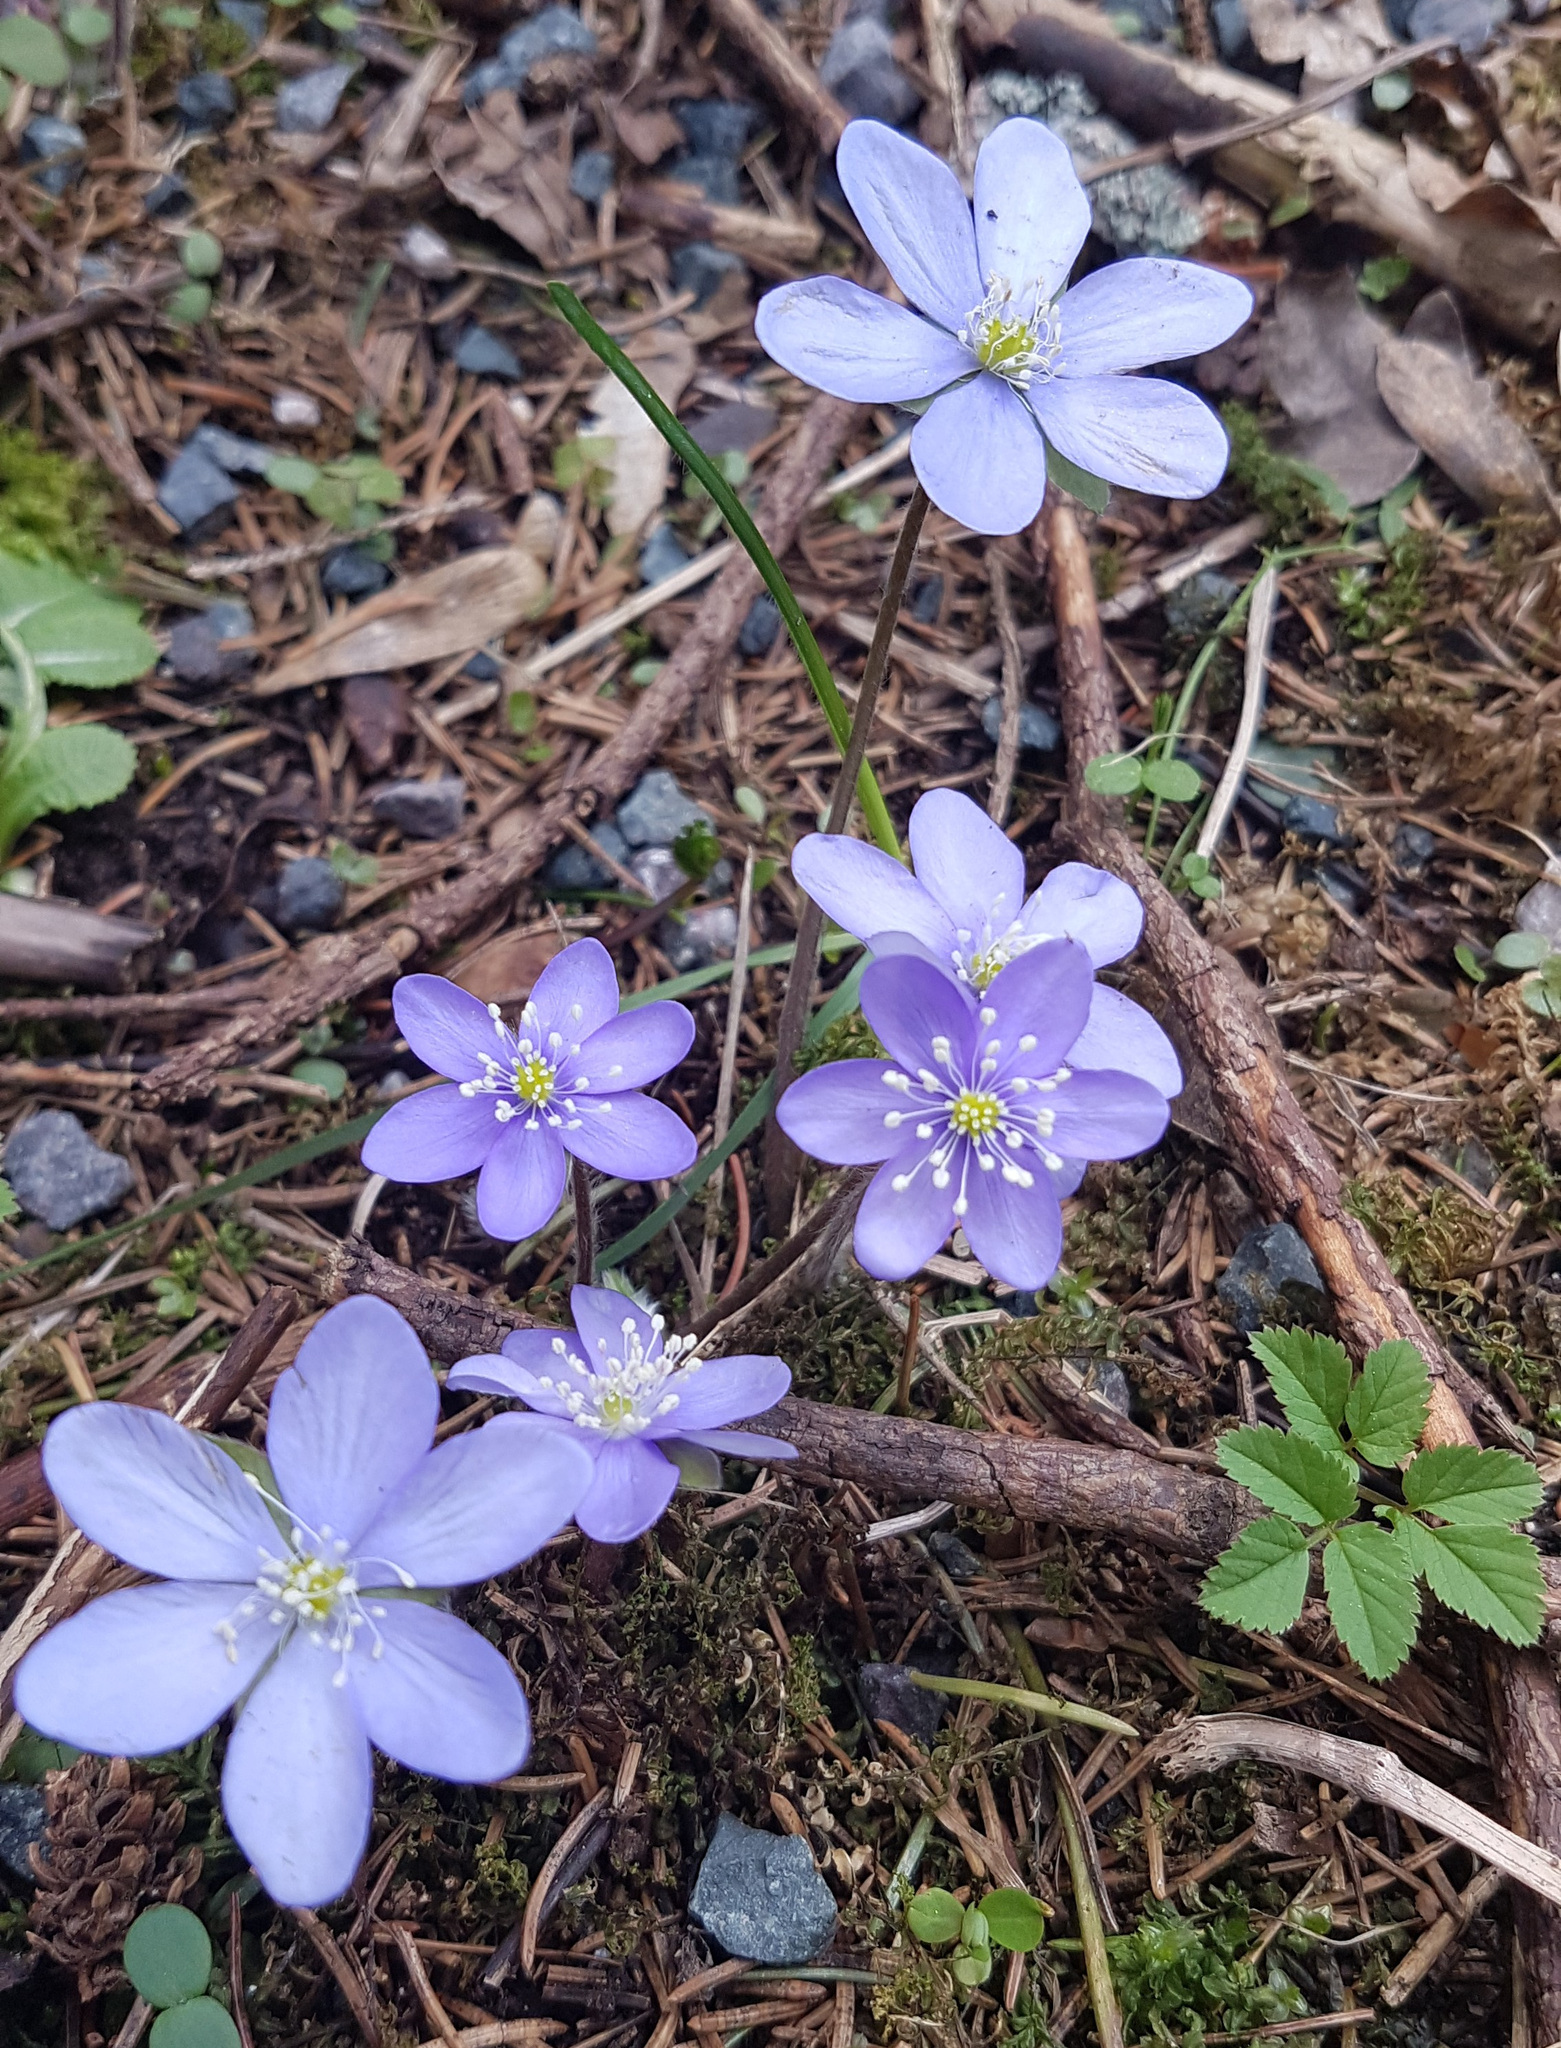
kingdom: Plantae
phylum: Tracheophyta
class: Magnoliopsida
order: Ranunculales
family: Ranunculaceae
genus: Hepatica
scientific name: Hepatica nobilis
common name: Liverleaf
